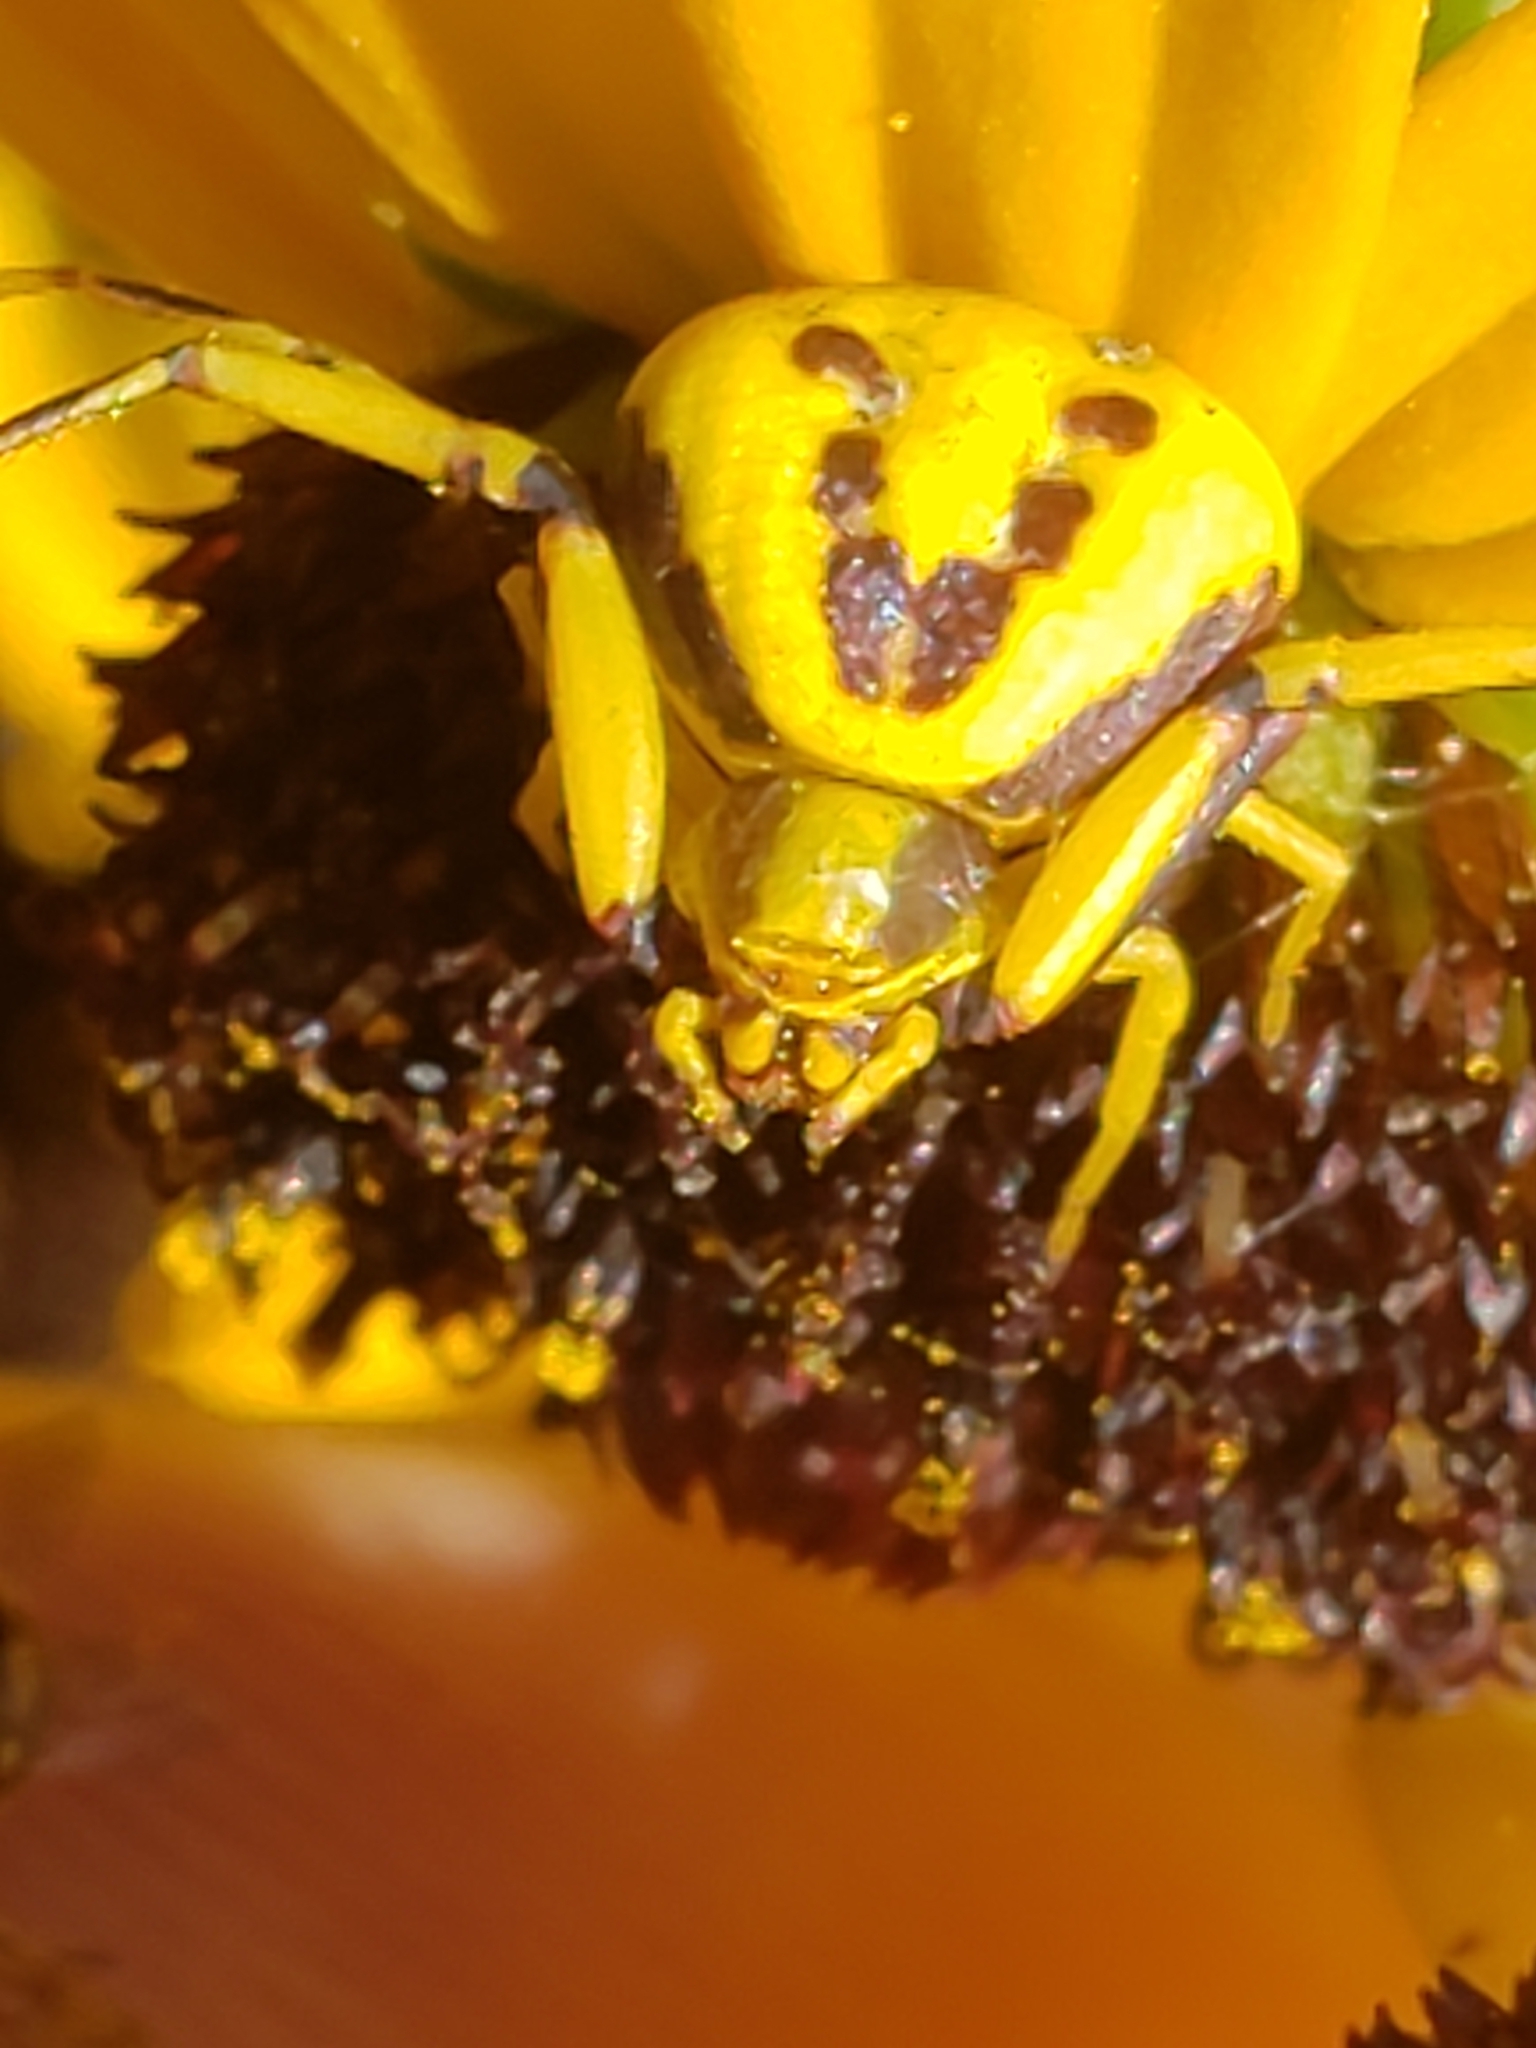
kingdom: Animalia
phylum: Arthropoda
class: Arachnida
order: Araneae
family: Thomisidae
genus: Misumenoides
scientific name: Misumenoides formosipes
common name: White-banded crab spider
